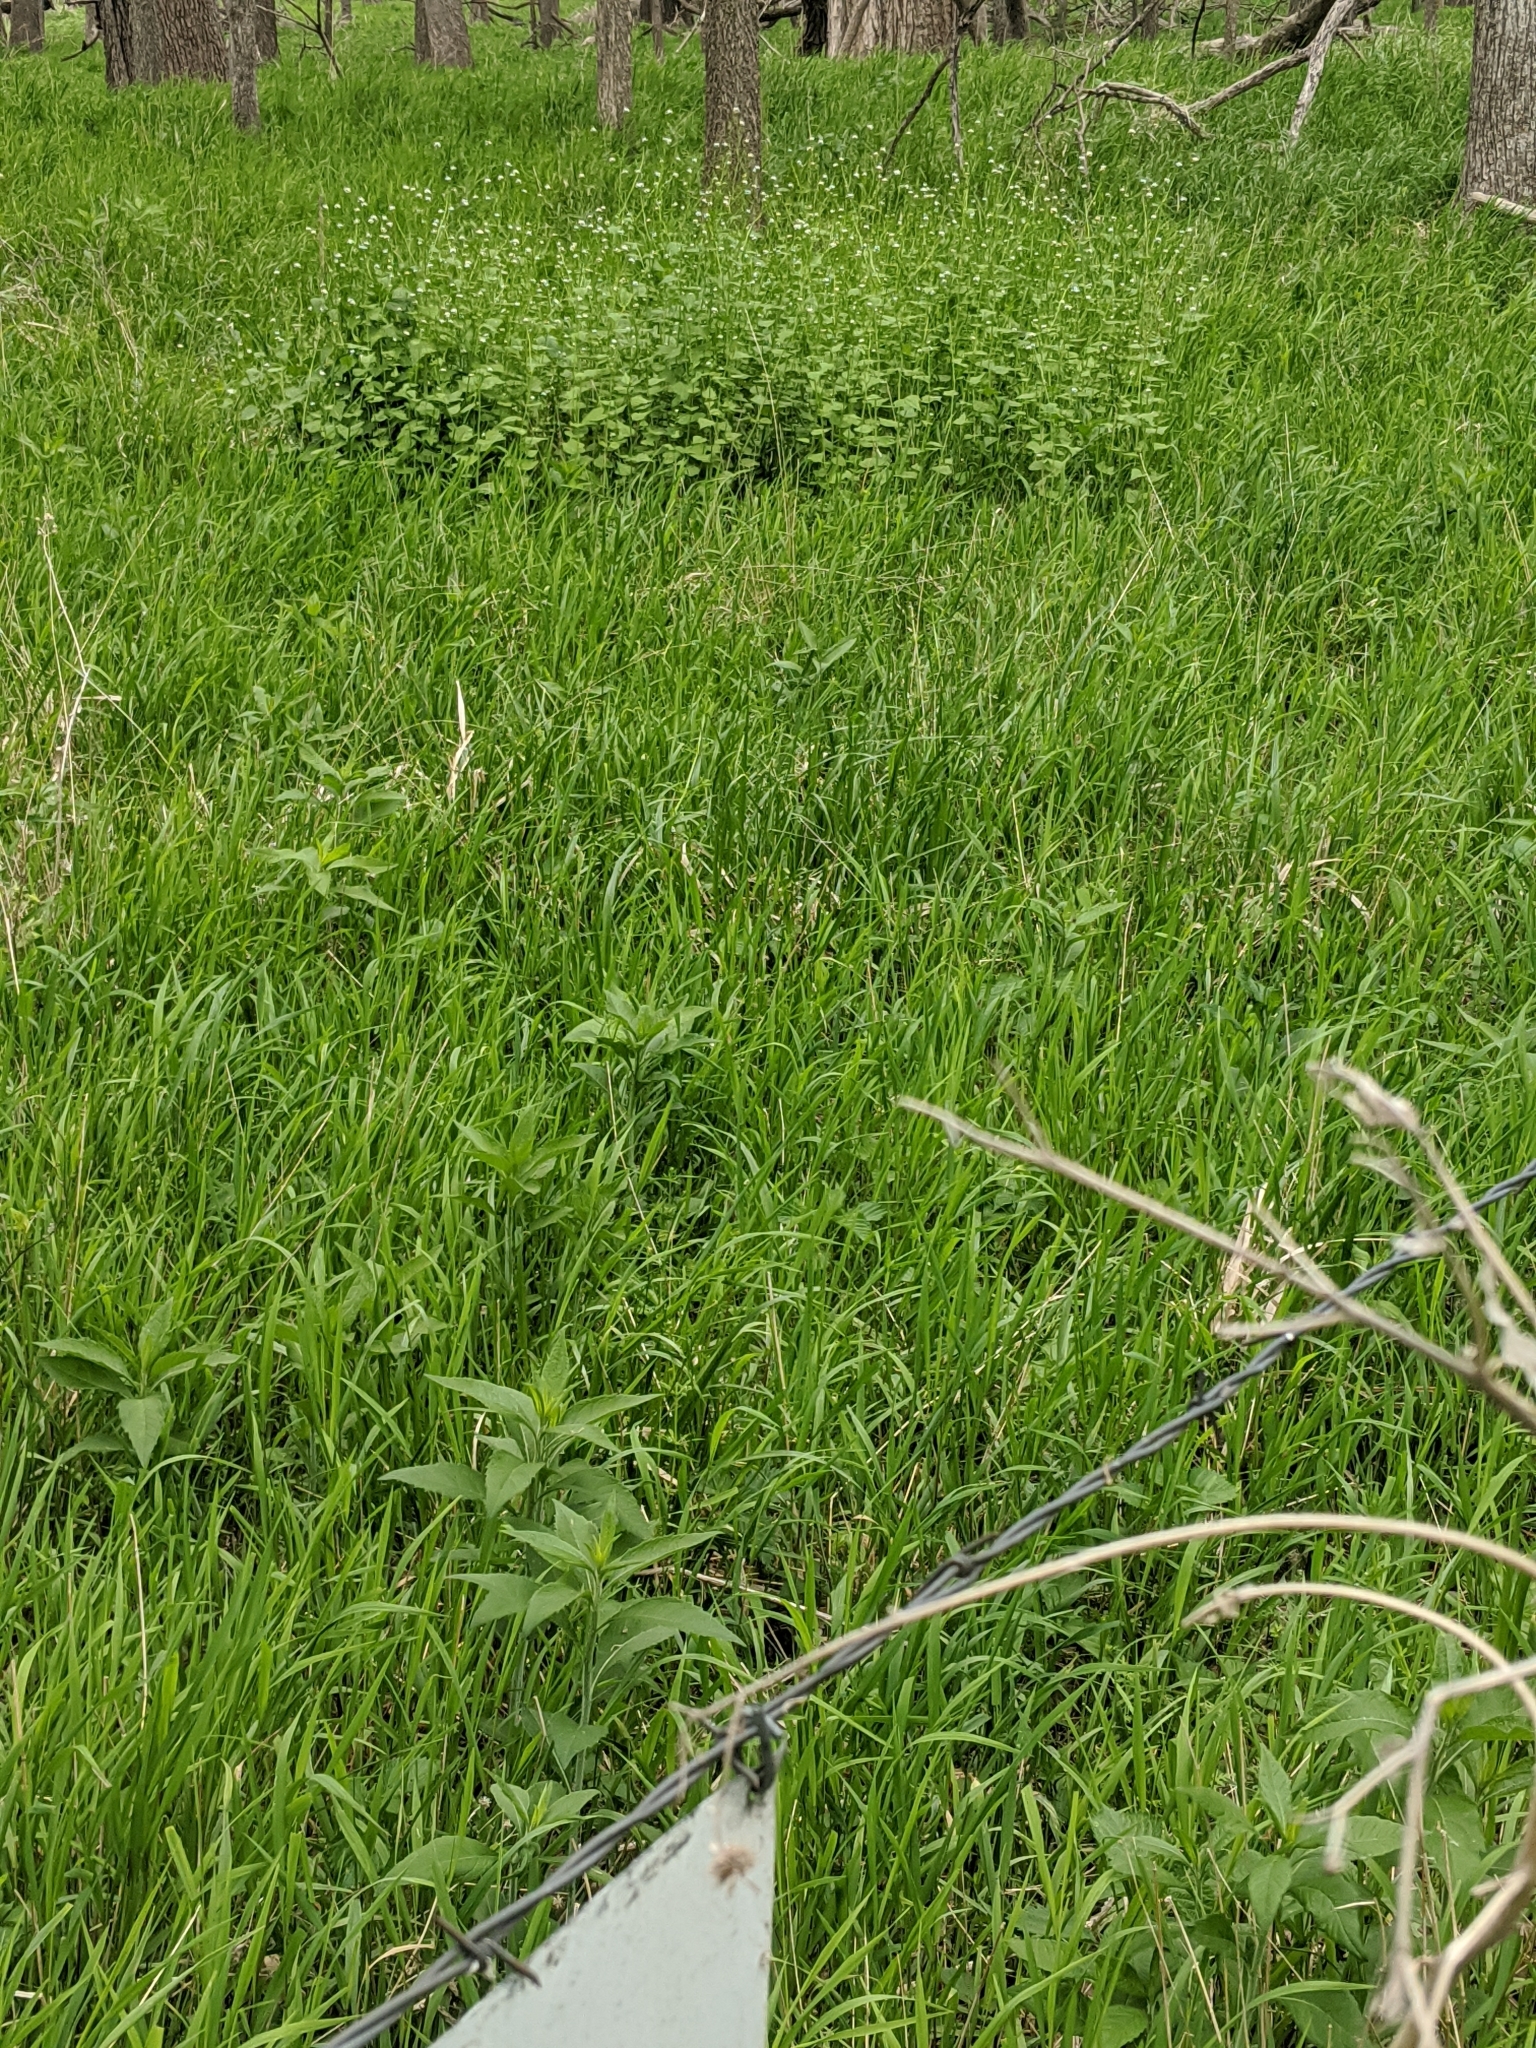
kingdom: Plantae
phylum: Tracheophyta
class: Magnoliopsida
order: Brassicales
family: Brassicaceae
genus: Alliaria
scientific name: Alliaria petiolata
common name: Garlic mustard
